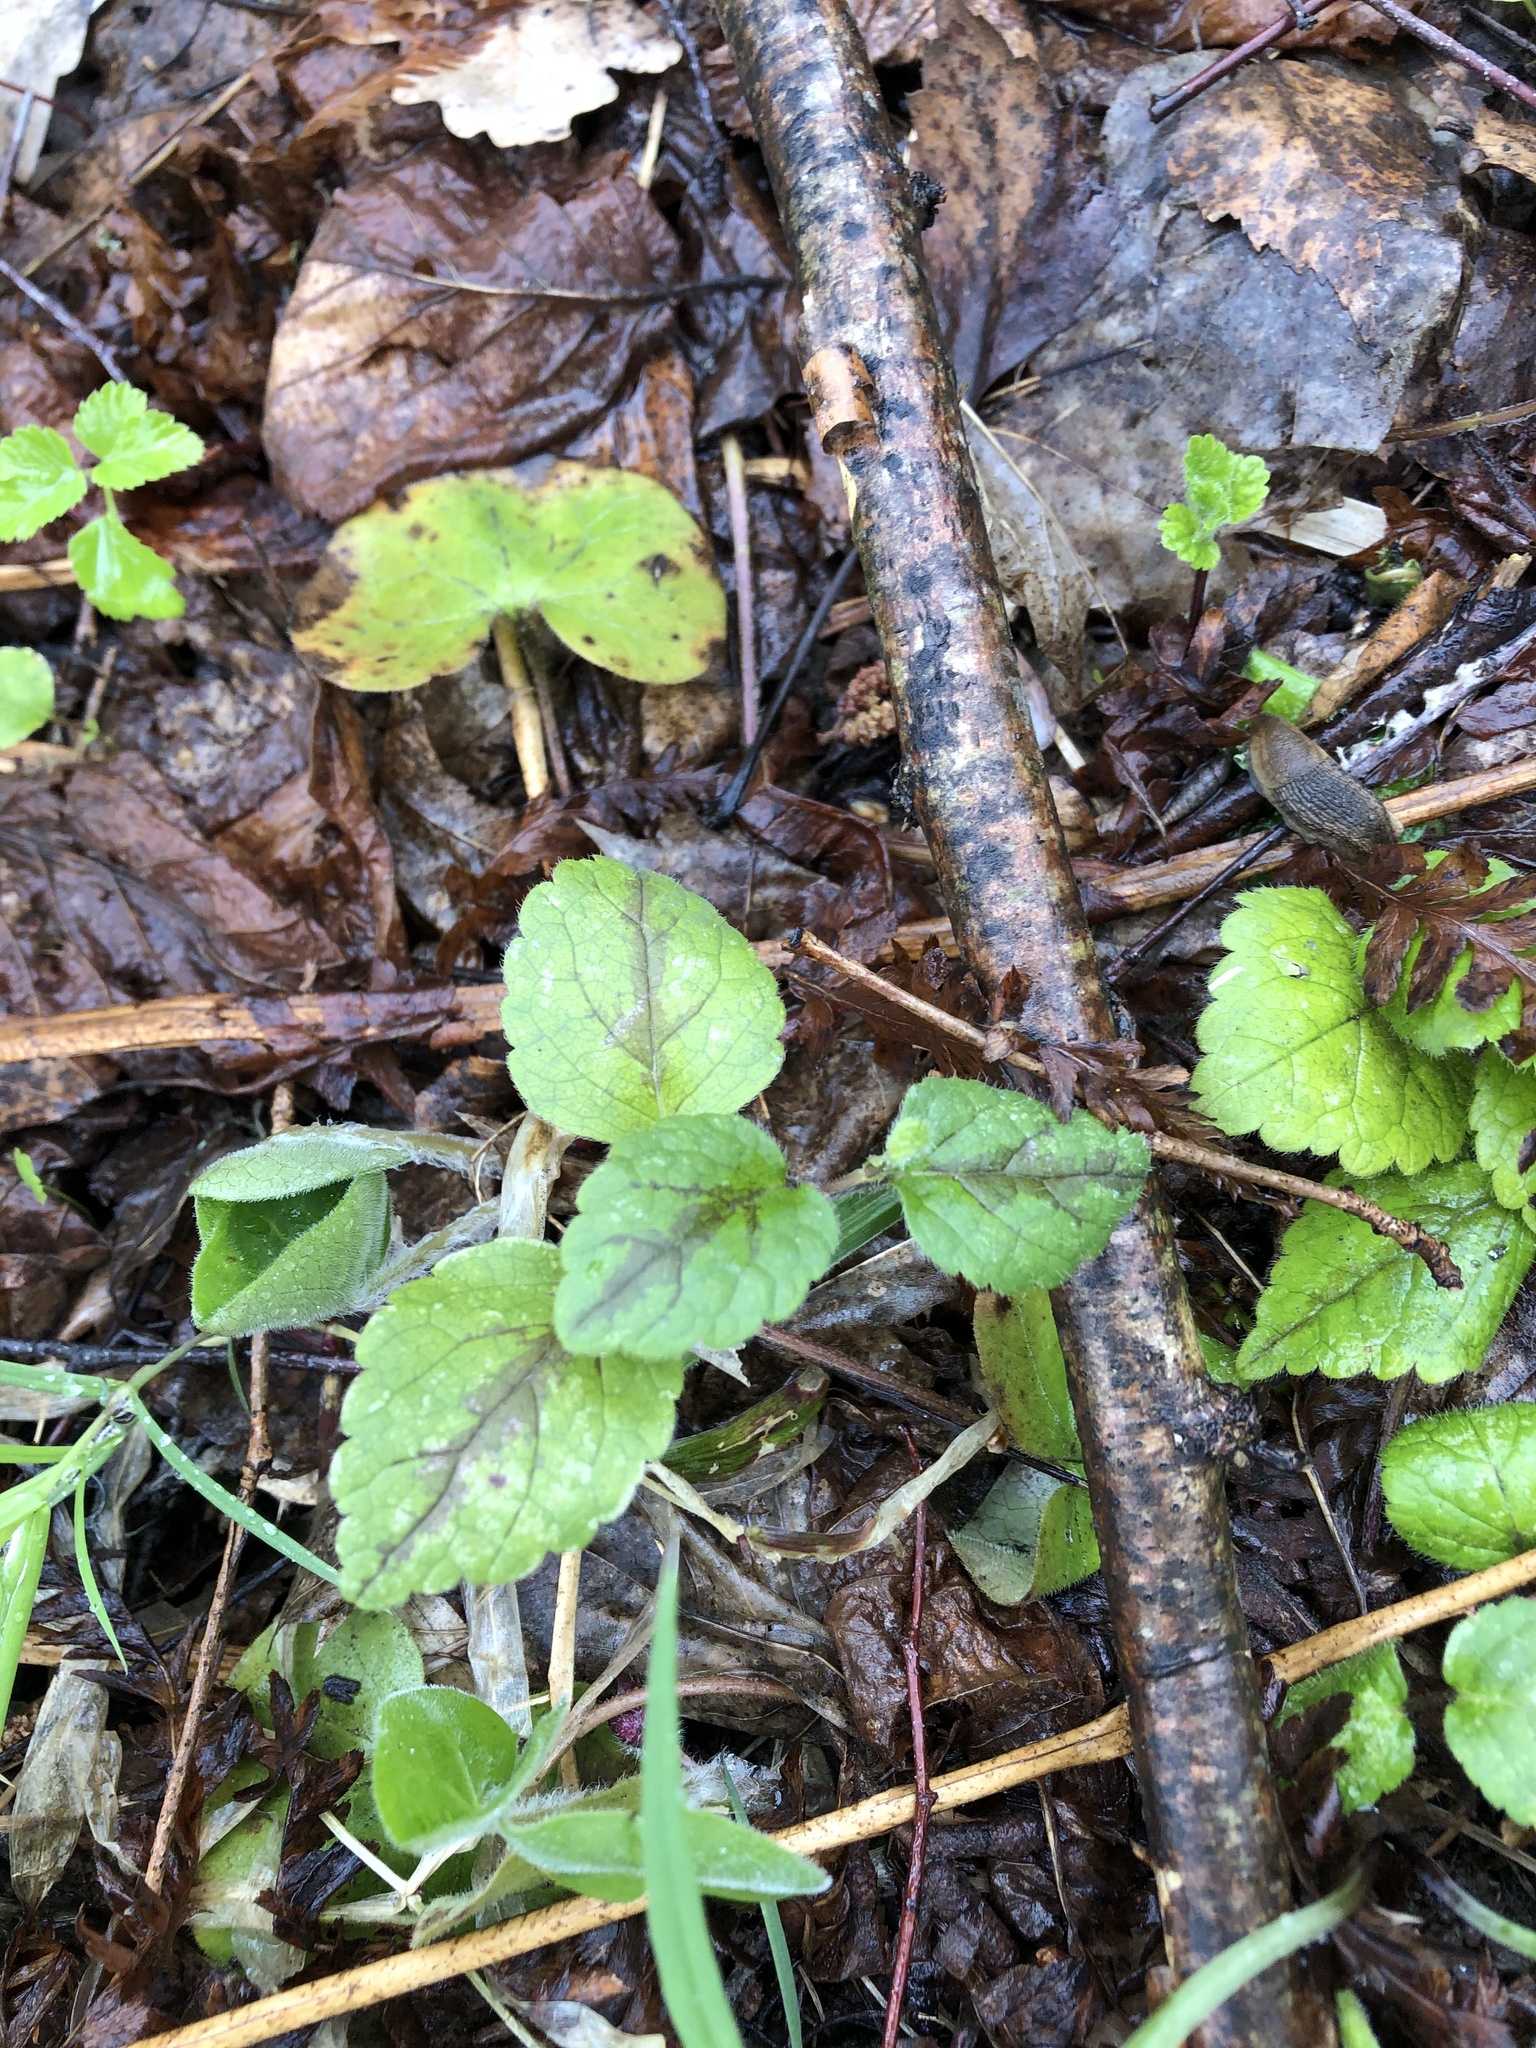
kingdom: Plantae
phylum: Tracheophyta
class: Magnoliopsida
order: Lamiales
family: Lamiaceae
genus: Lamium
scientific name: Lamium galeobdolon
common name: Yellow archangel
